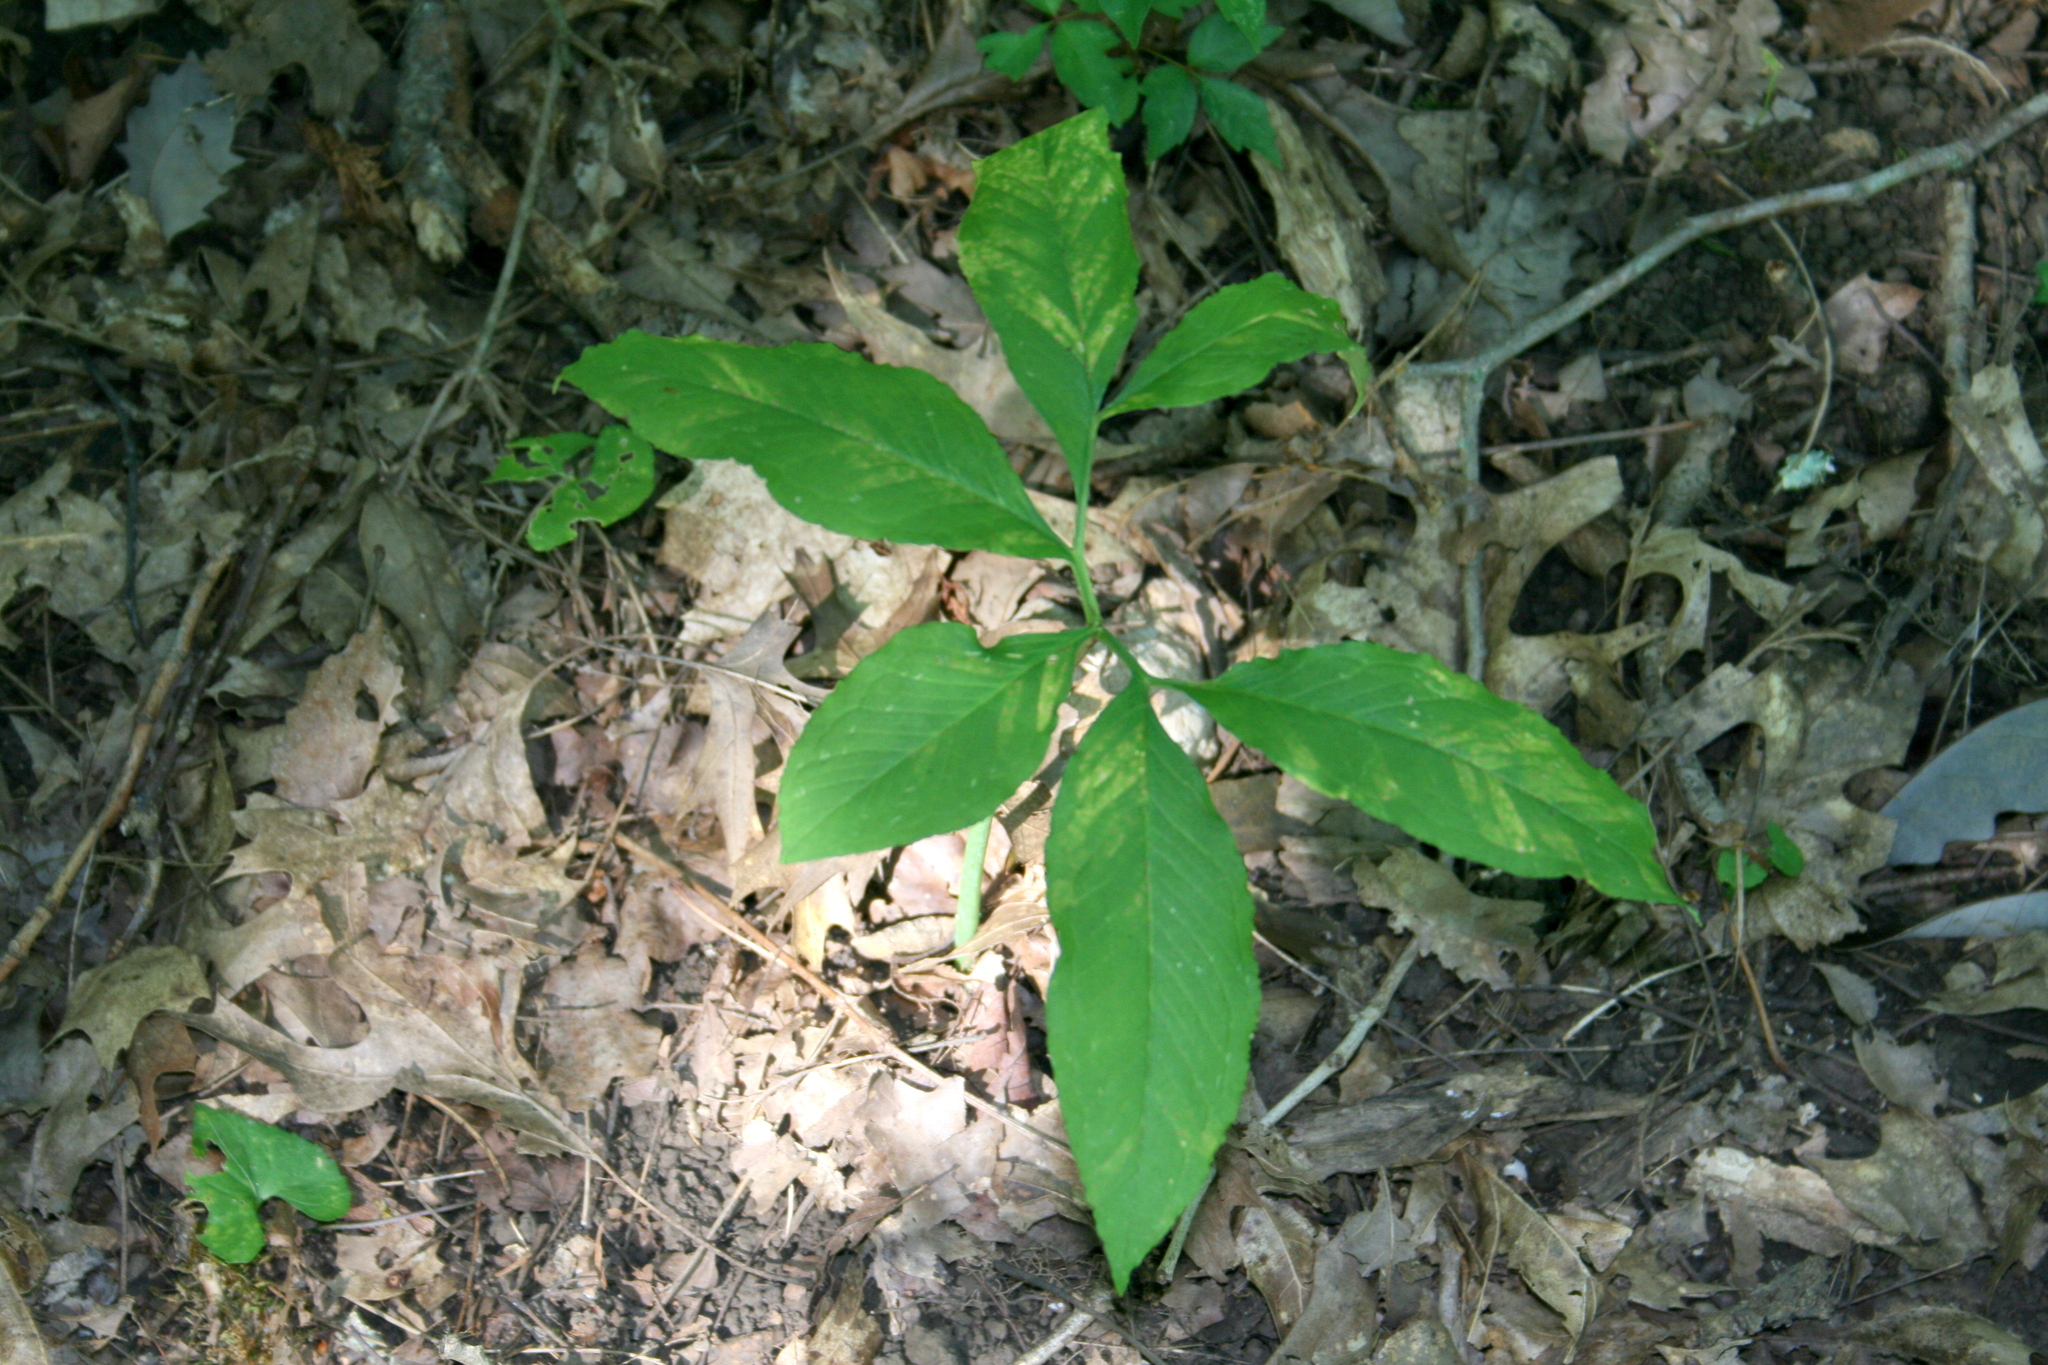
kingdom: Plantae
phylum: Tracheophyta
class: Liliopsida
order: Alismatales
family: Araceae
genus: Arisaema
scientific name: Arisaema dracontium
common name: Dragon-arum
